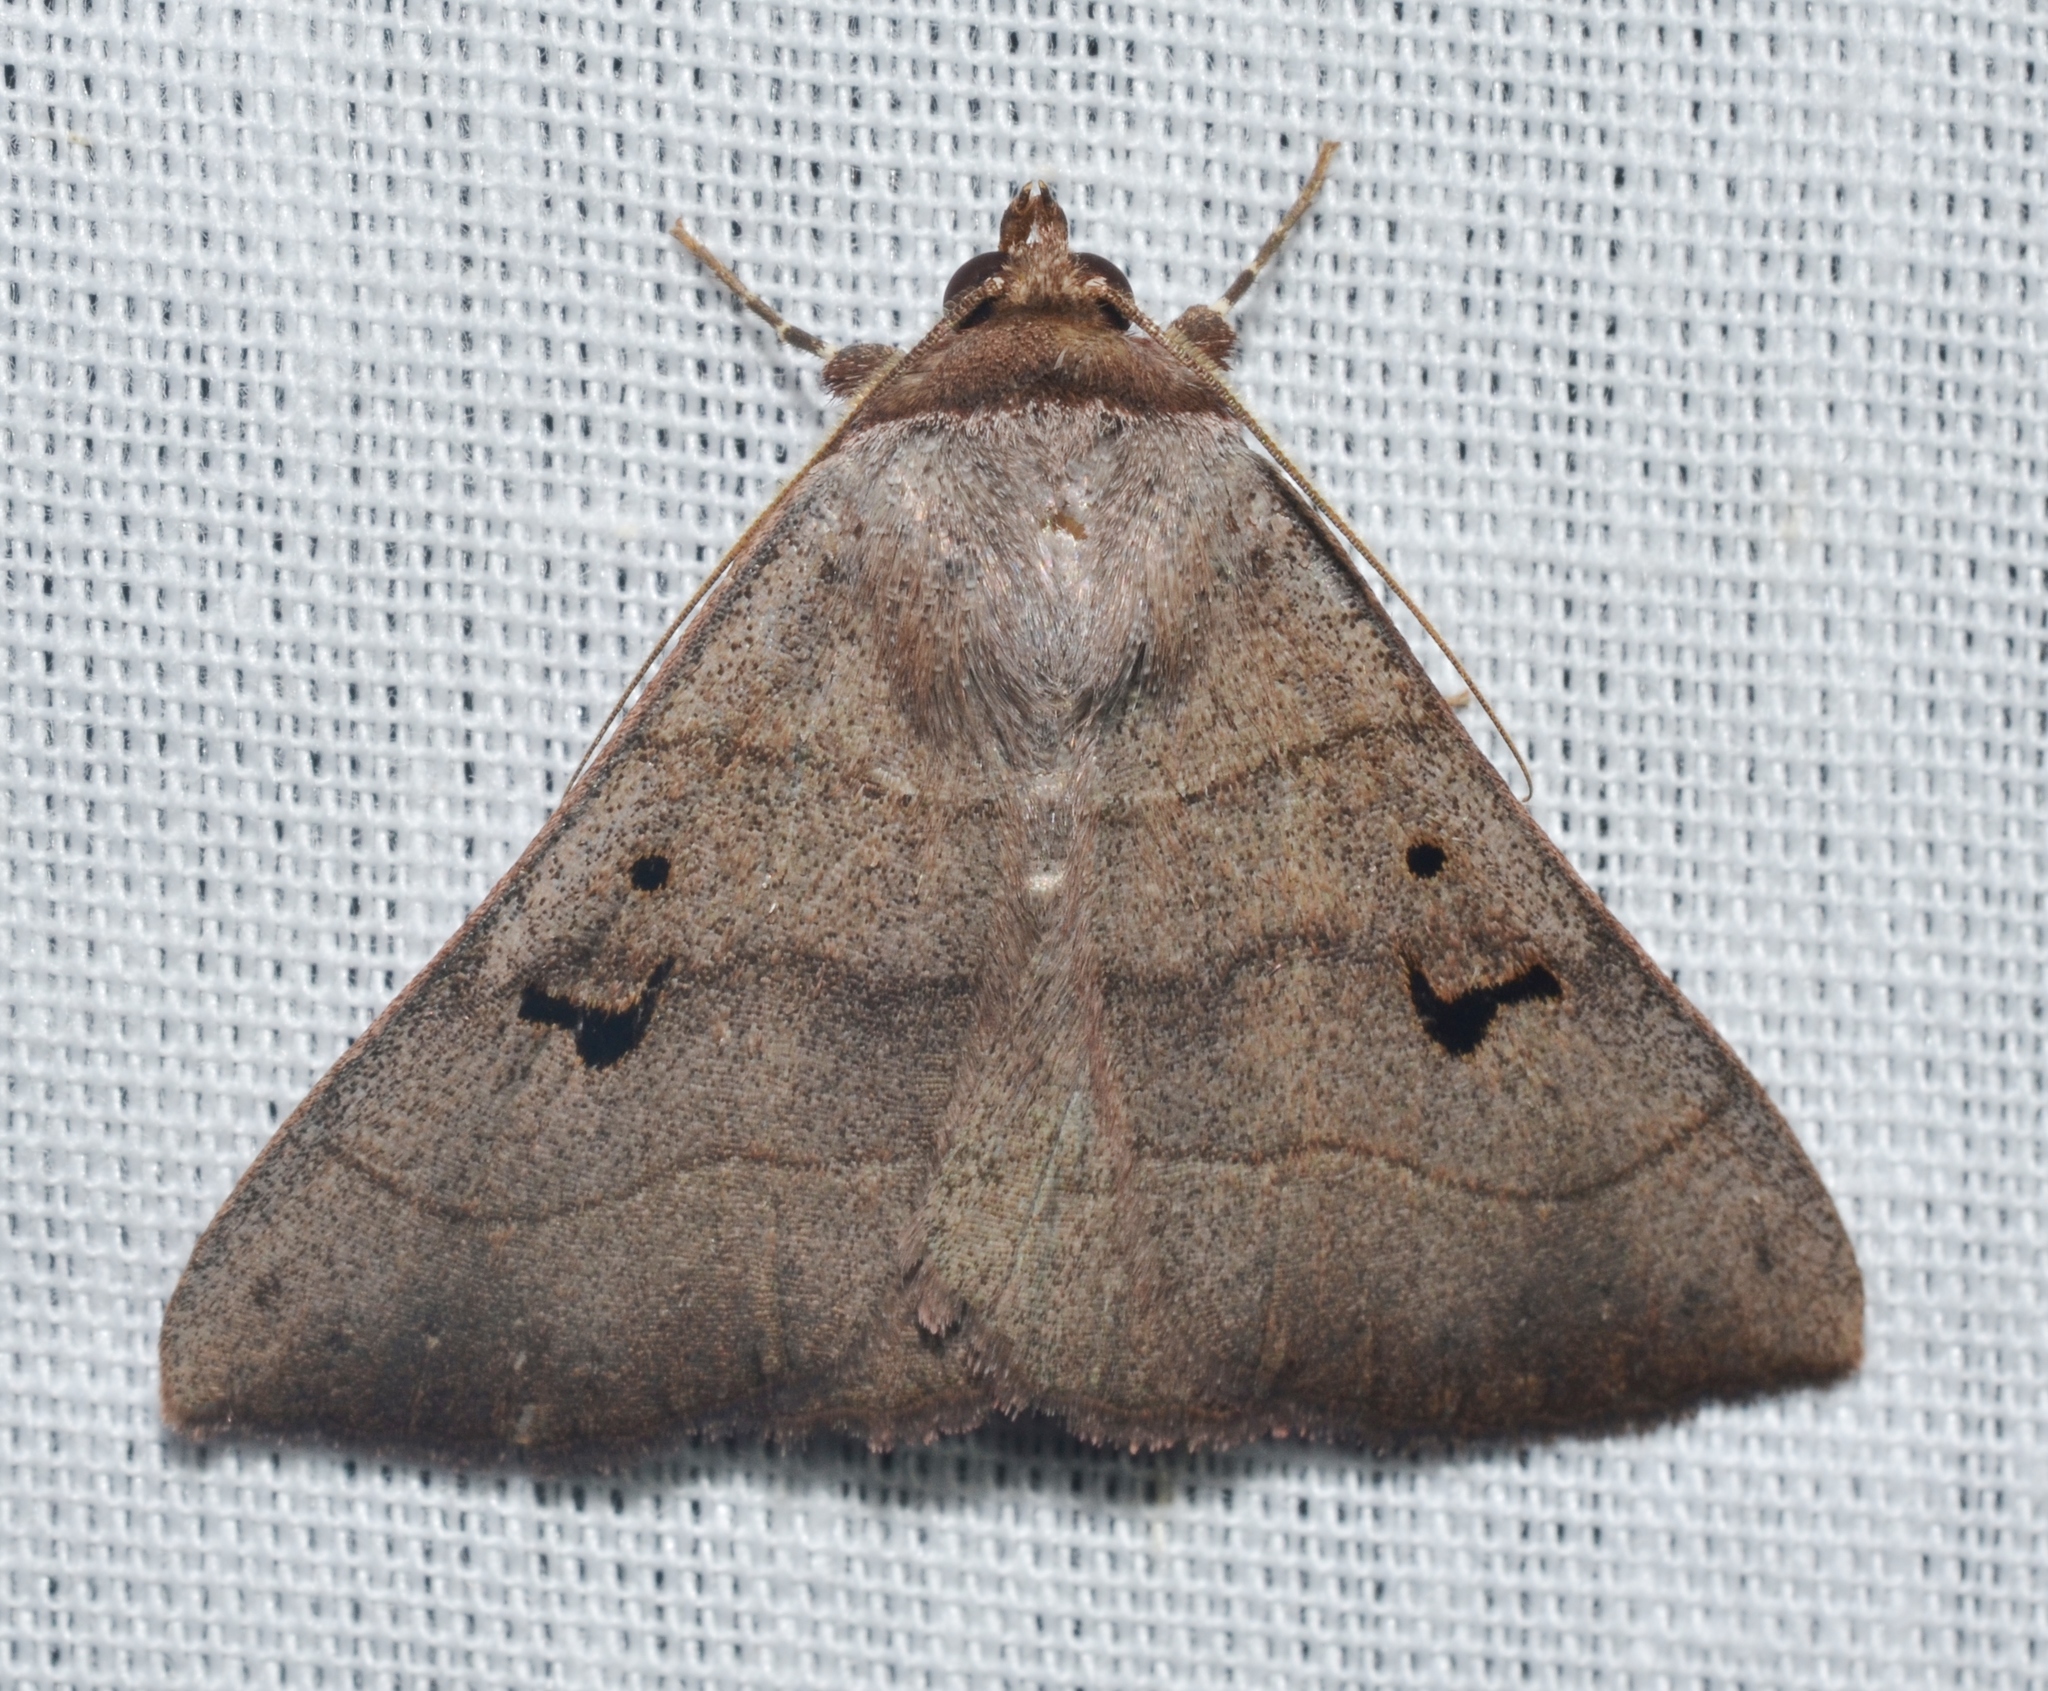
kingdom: Animalia
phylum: Arthropoda
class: Insecta
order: Lepidoptera
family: Erebidae
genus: Panopoda
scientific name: Panopoda carneicosta
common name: Brown panopoda moth
